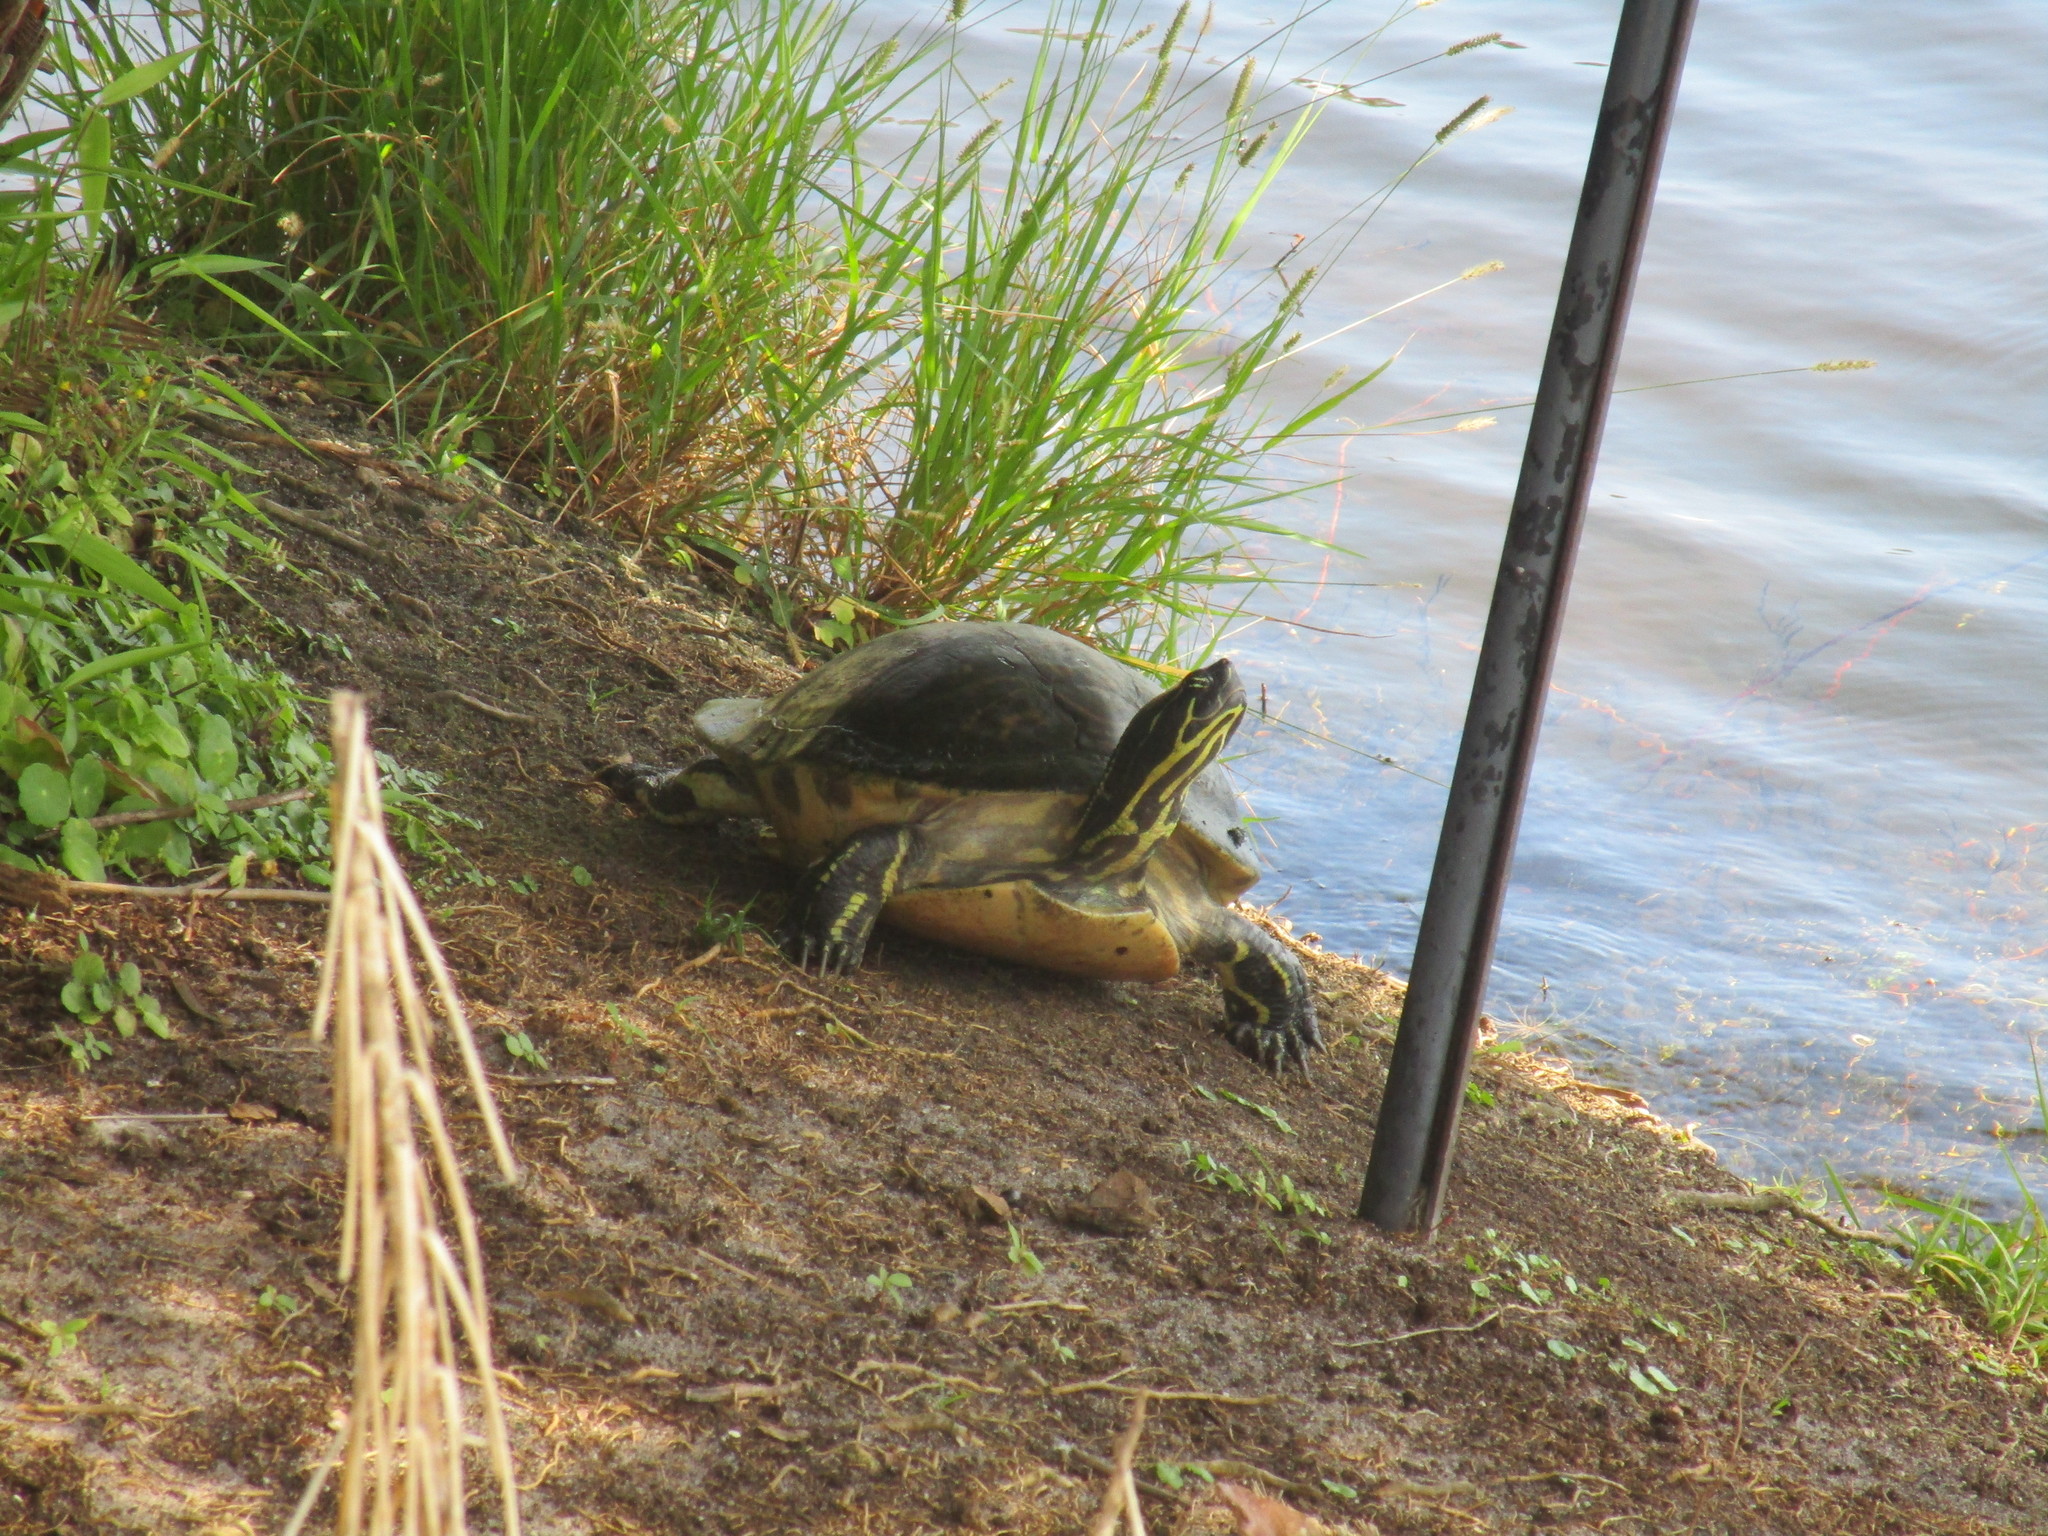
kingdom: Animalia
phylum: Chordata
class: Testudines
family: Emydidae
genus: Pseudemys
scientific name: Pseudemys peninsularis
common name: Peninsula cooter
